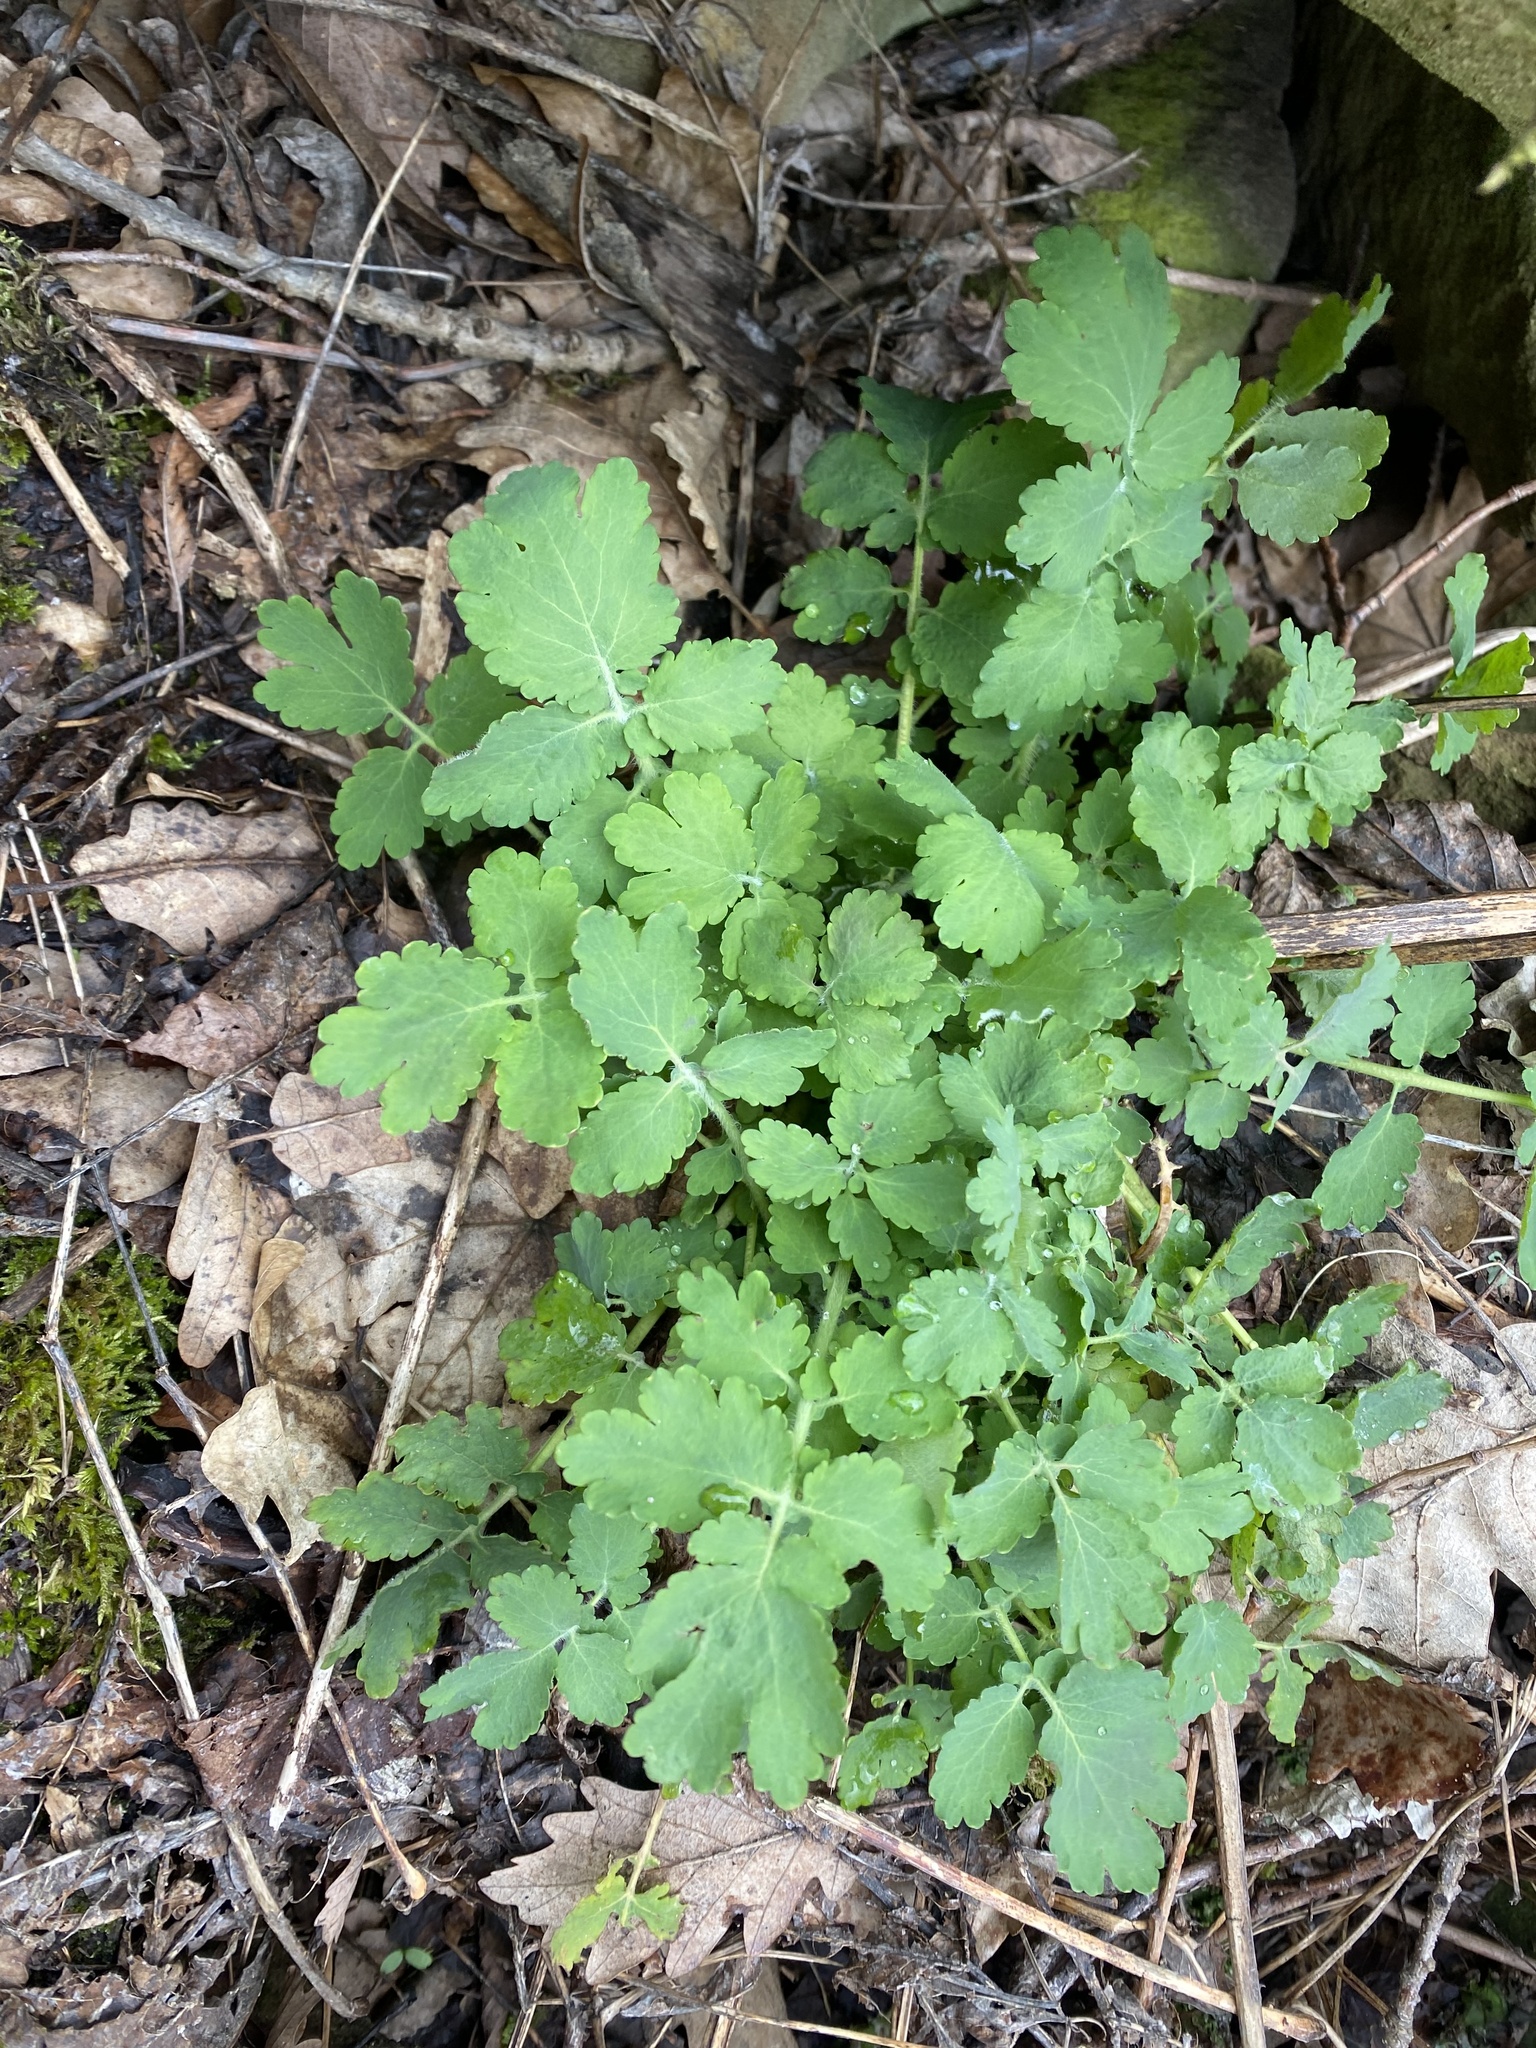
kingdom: Plantae
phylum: Tracheophyta
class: Magnoliopsida
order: Ranunculales
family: Papaveraceae
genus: Chelidonium
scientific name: Chelidonium majus
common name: Greater celandine
